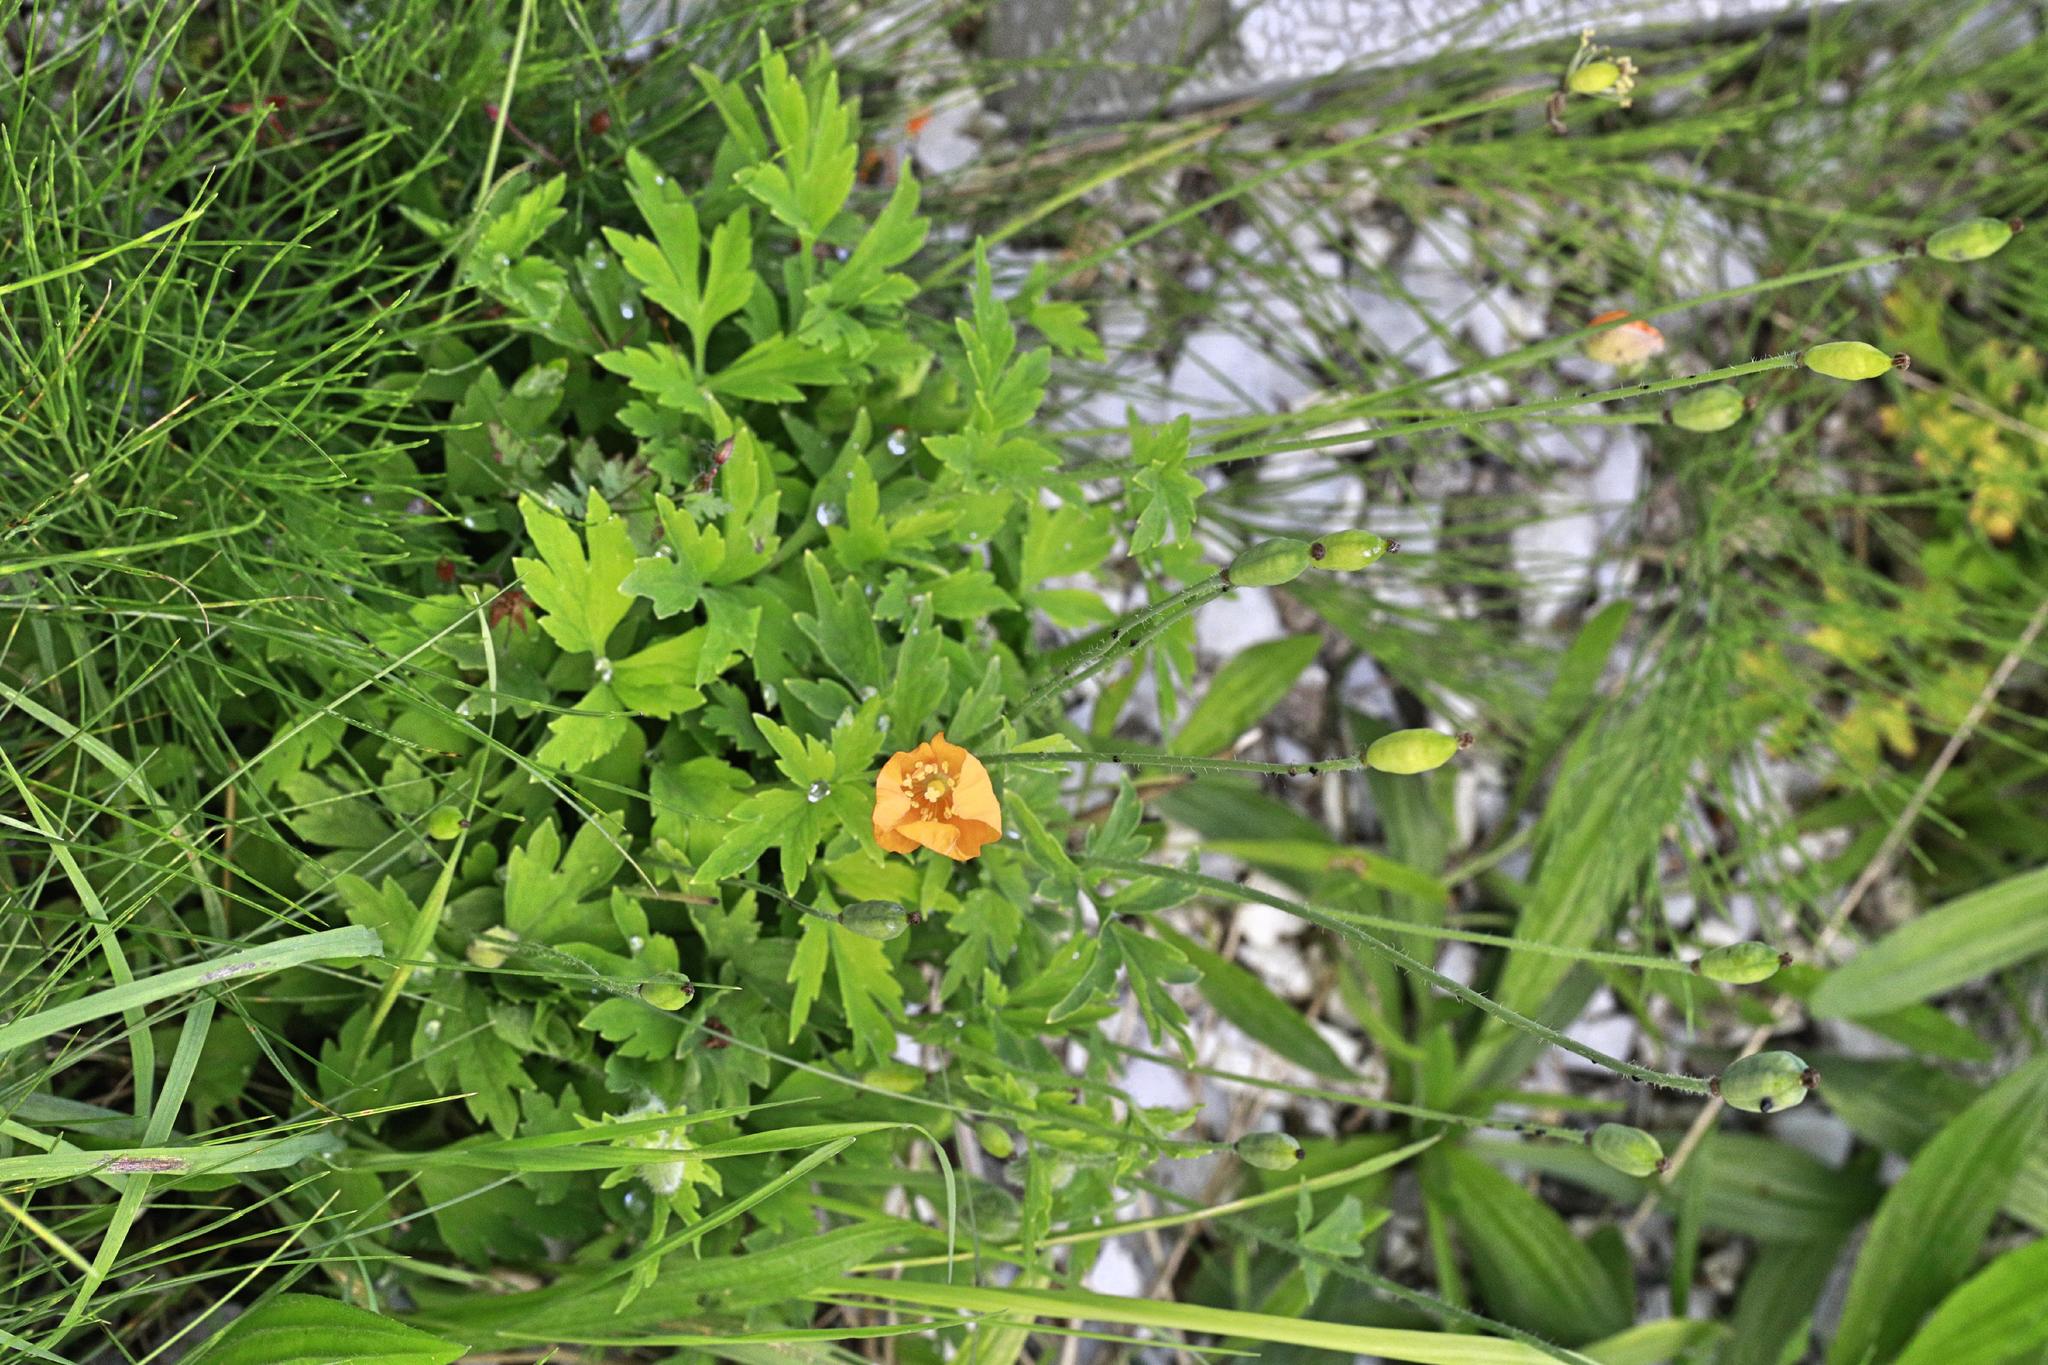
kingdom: Plantae
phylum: Tracheophyta
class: Magnoliopsida
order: Ranunculales
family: Papaveraceae
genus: Papaver
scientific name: Papaver cambricum
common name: Poppy
